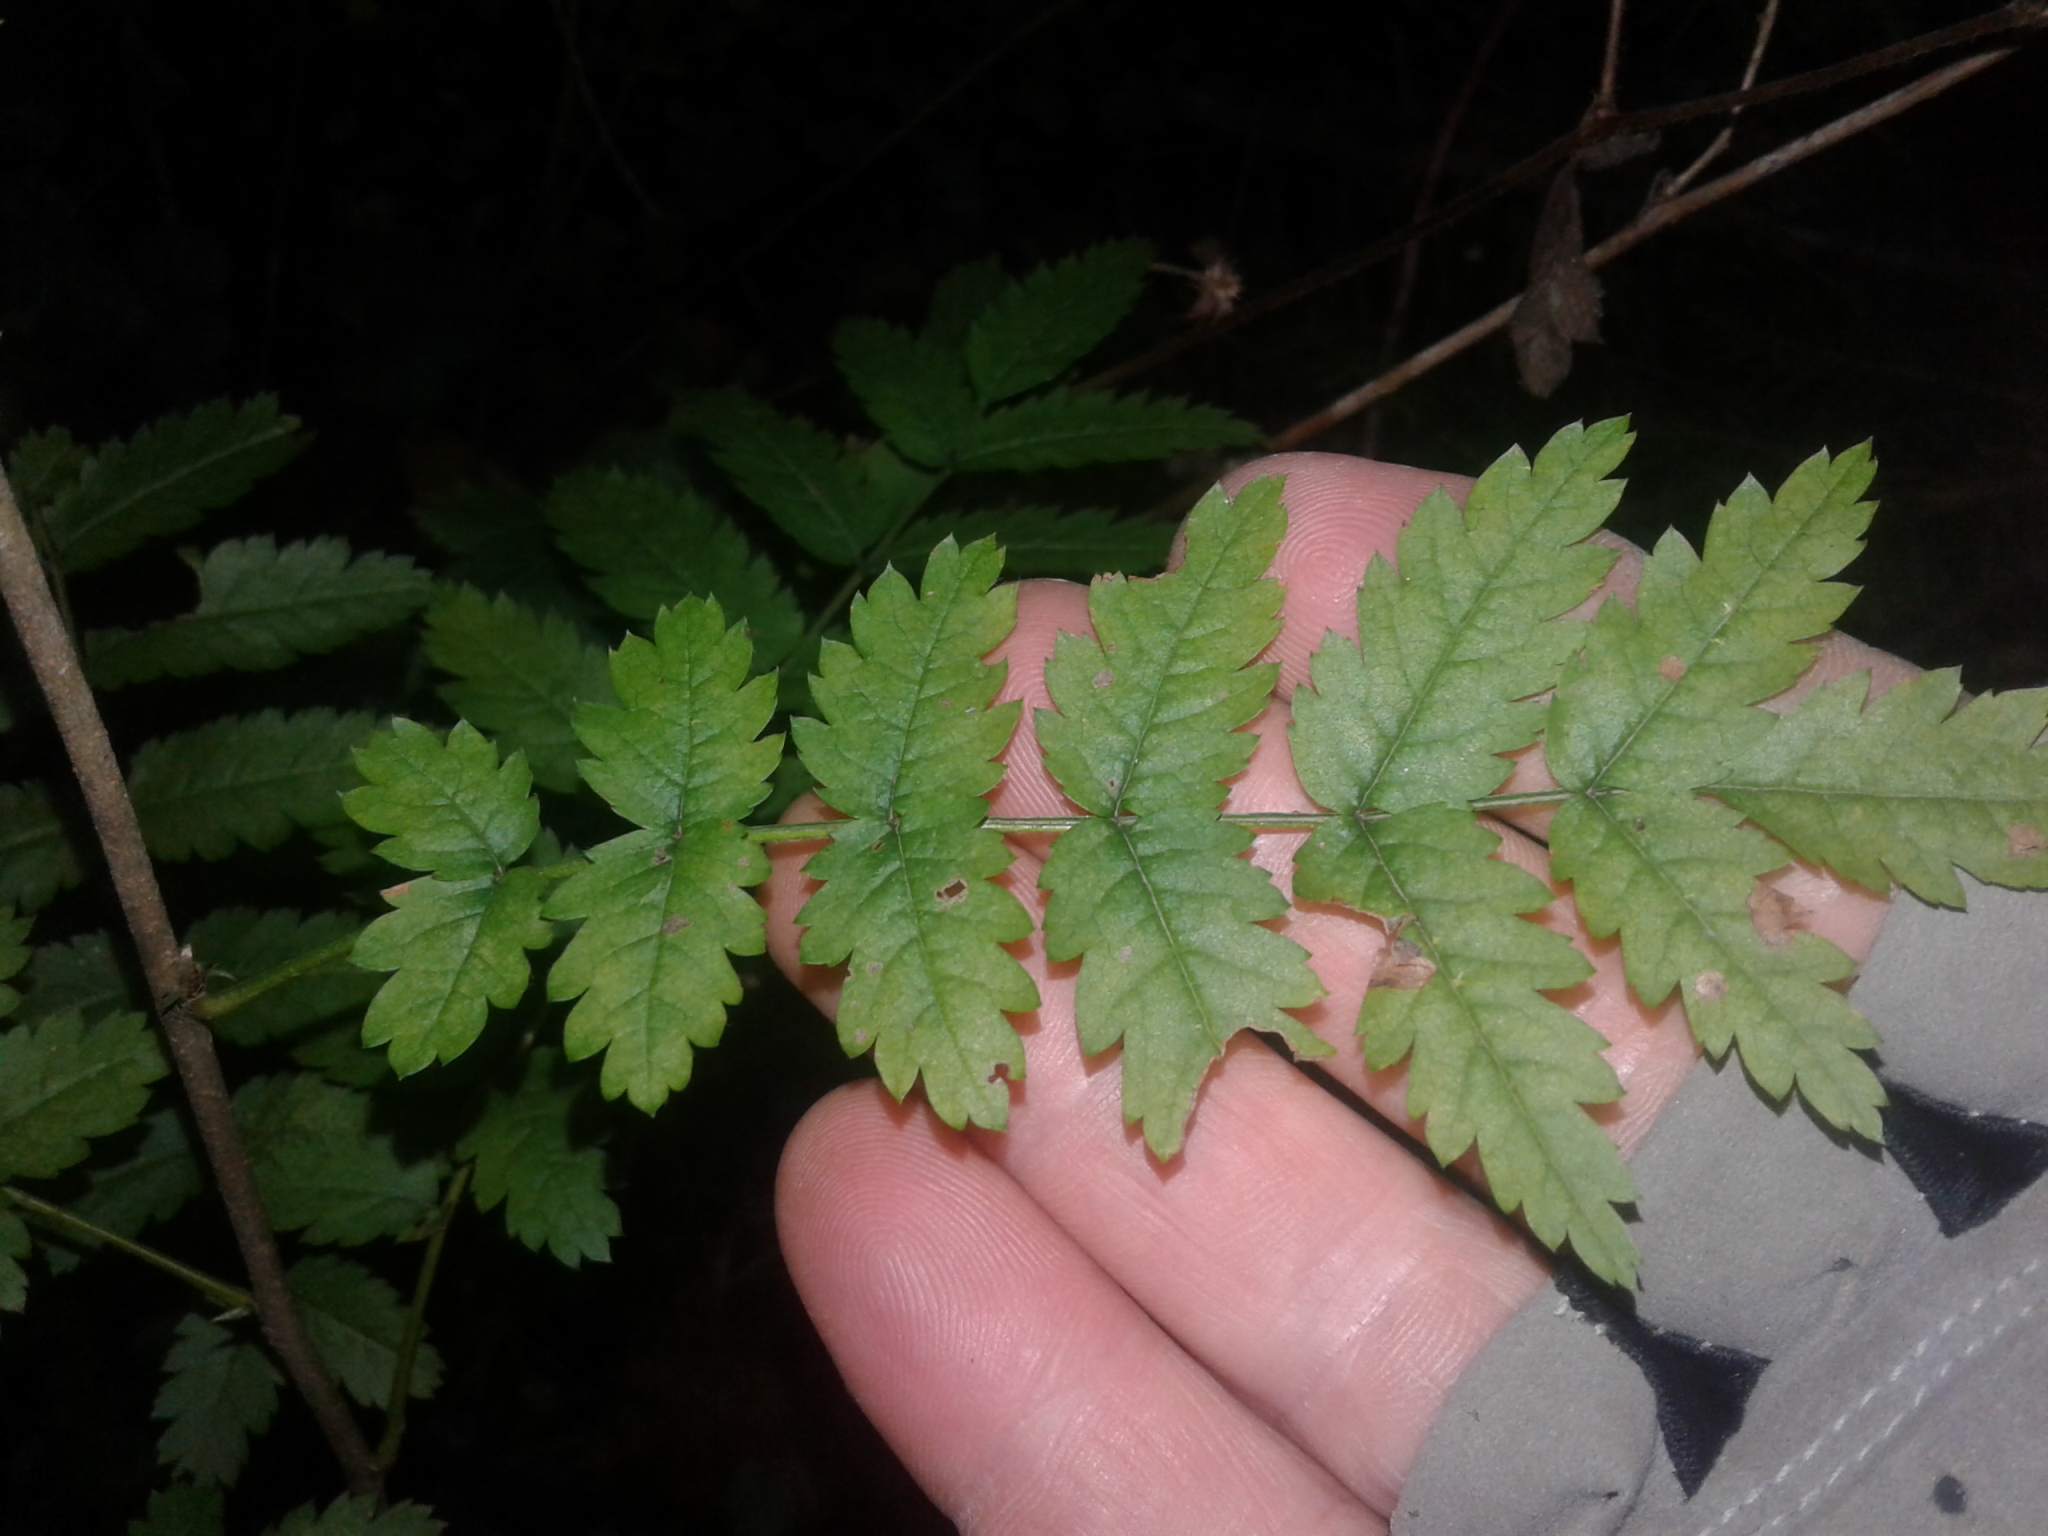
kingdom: Plantae
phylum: Tracheophyta
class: Magnoliopsida
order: Rosales
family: Rosaceae
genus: Sorbus
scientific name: Sorbus aucuparia
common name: Rowan
